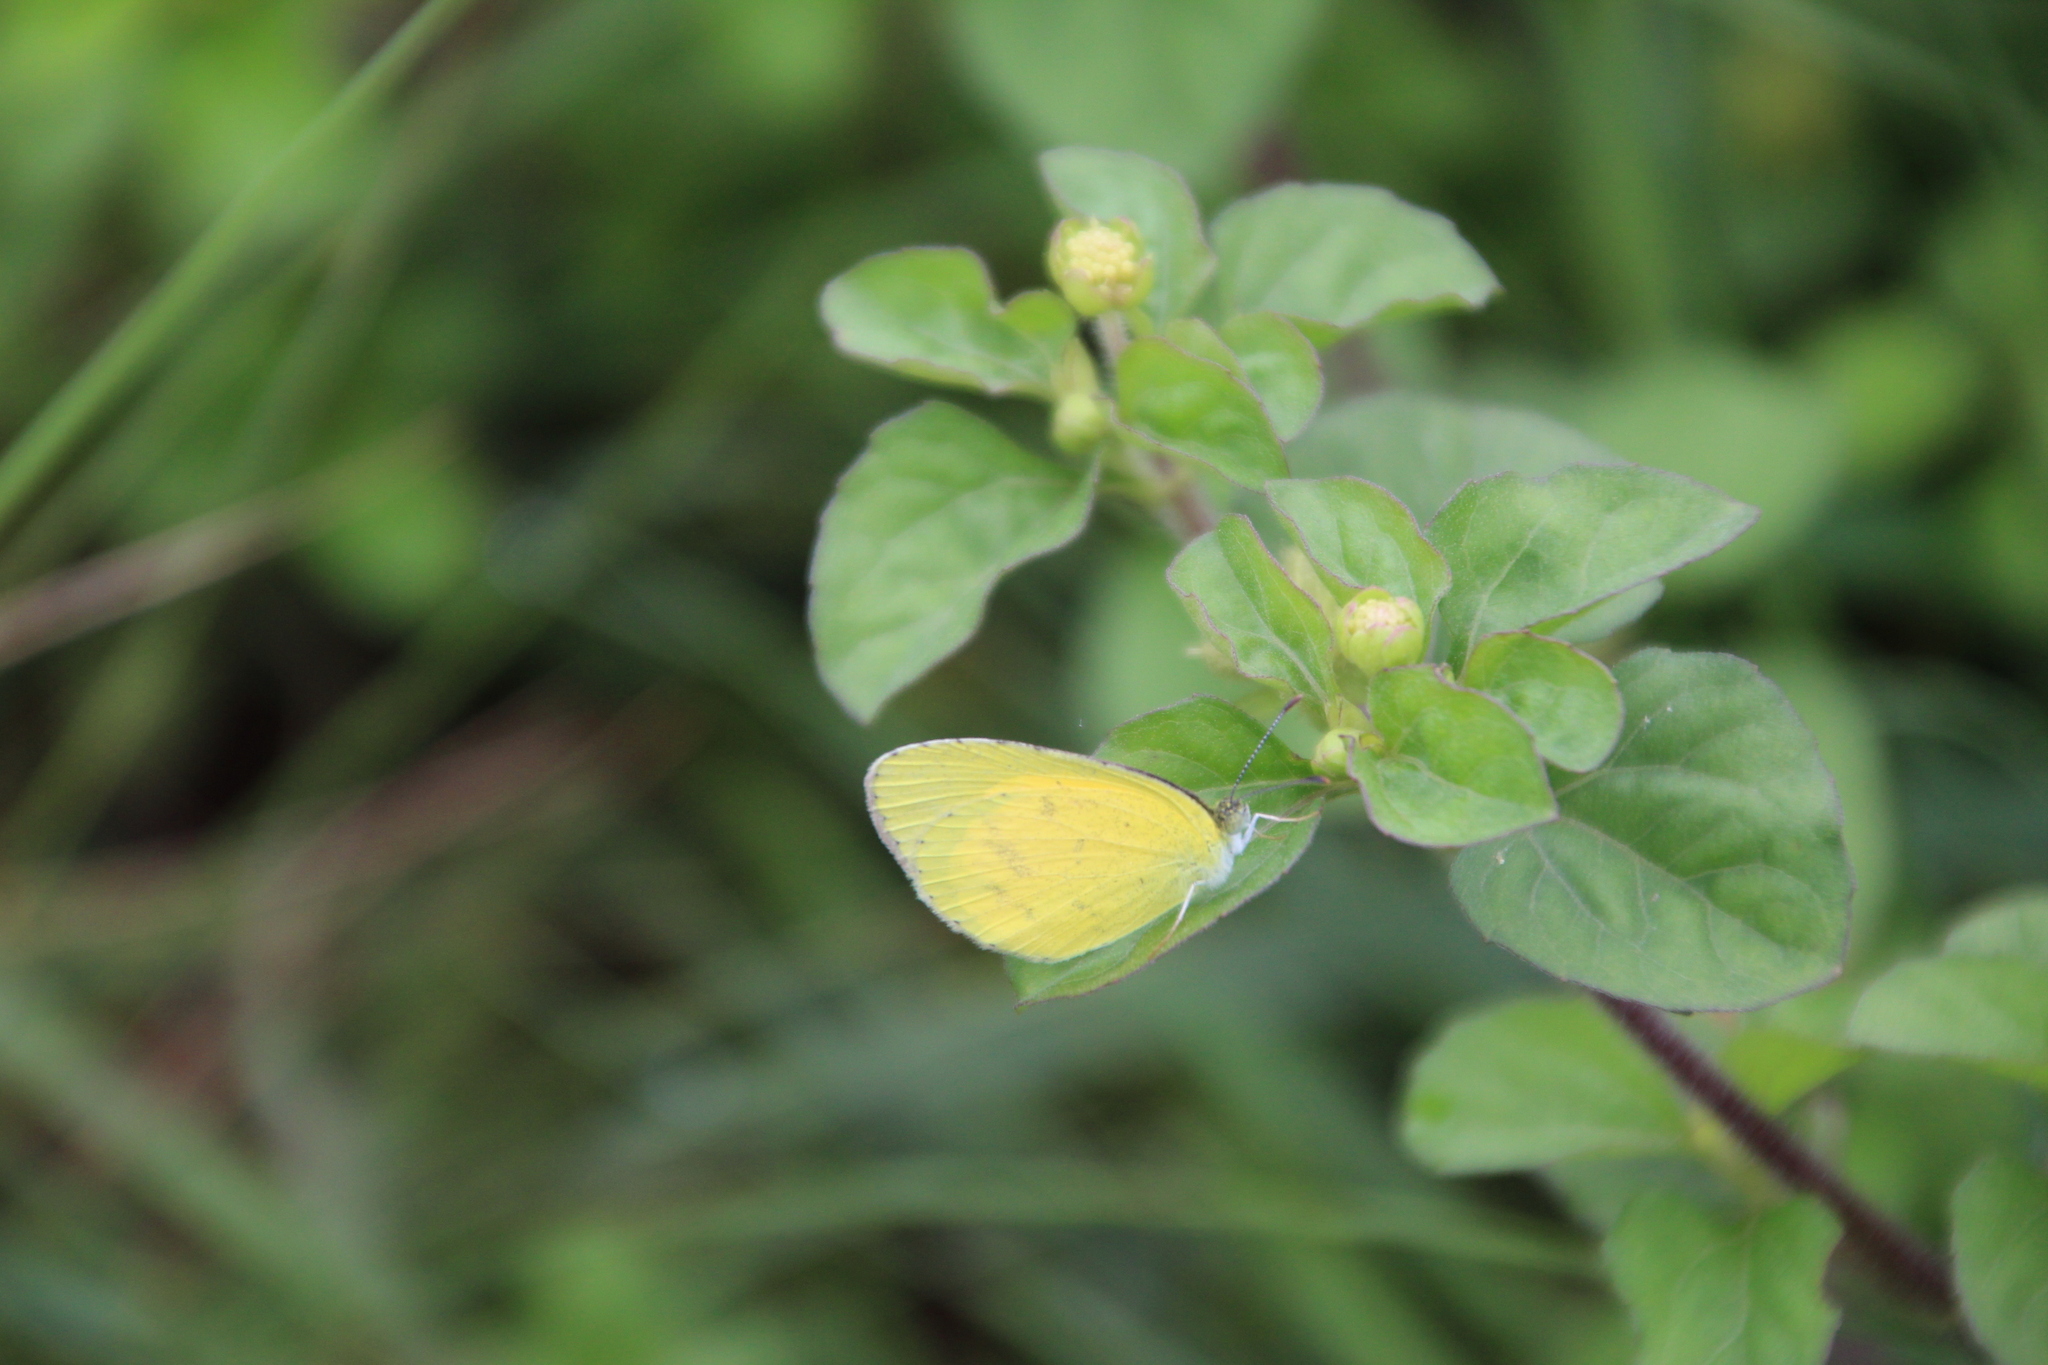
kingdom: Animalia
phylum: Arthropoda
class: Insecta
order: Lepidoptera
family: Pieridae
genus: Eurema
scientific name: Eurema brigitta
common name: Small grass yellow
